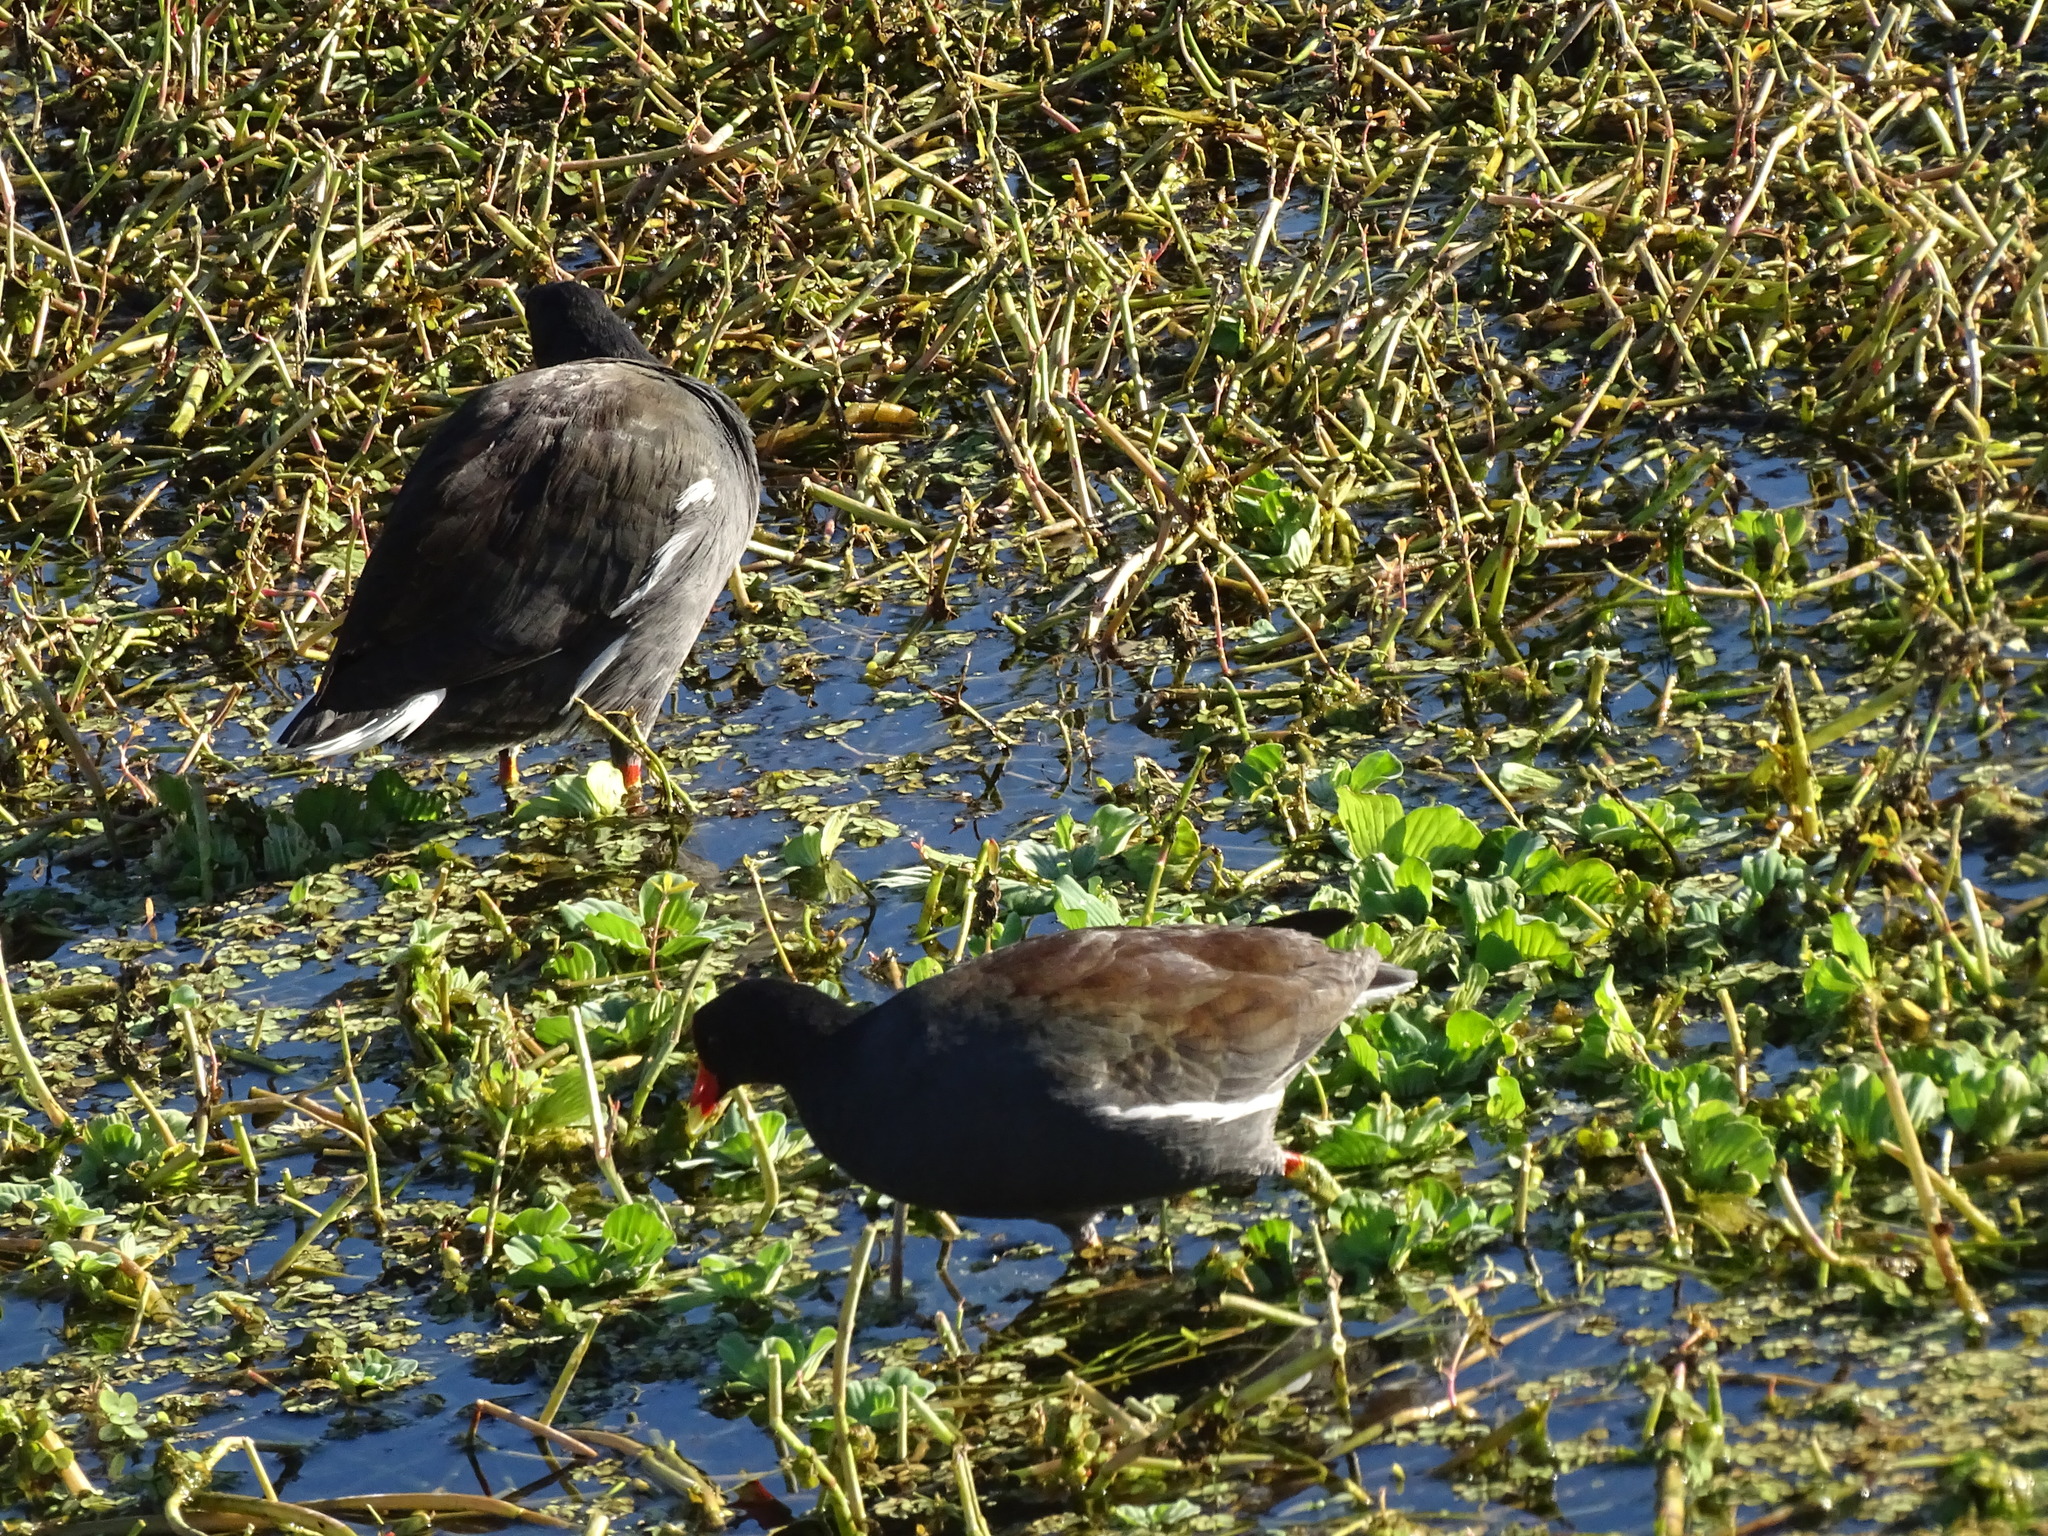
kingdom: Animalia
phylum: Chordata
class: Aves
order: Gruiformes
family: Rallidae
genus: Gallinula
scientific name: Gallinula chloropus
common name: Common moorhen
